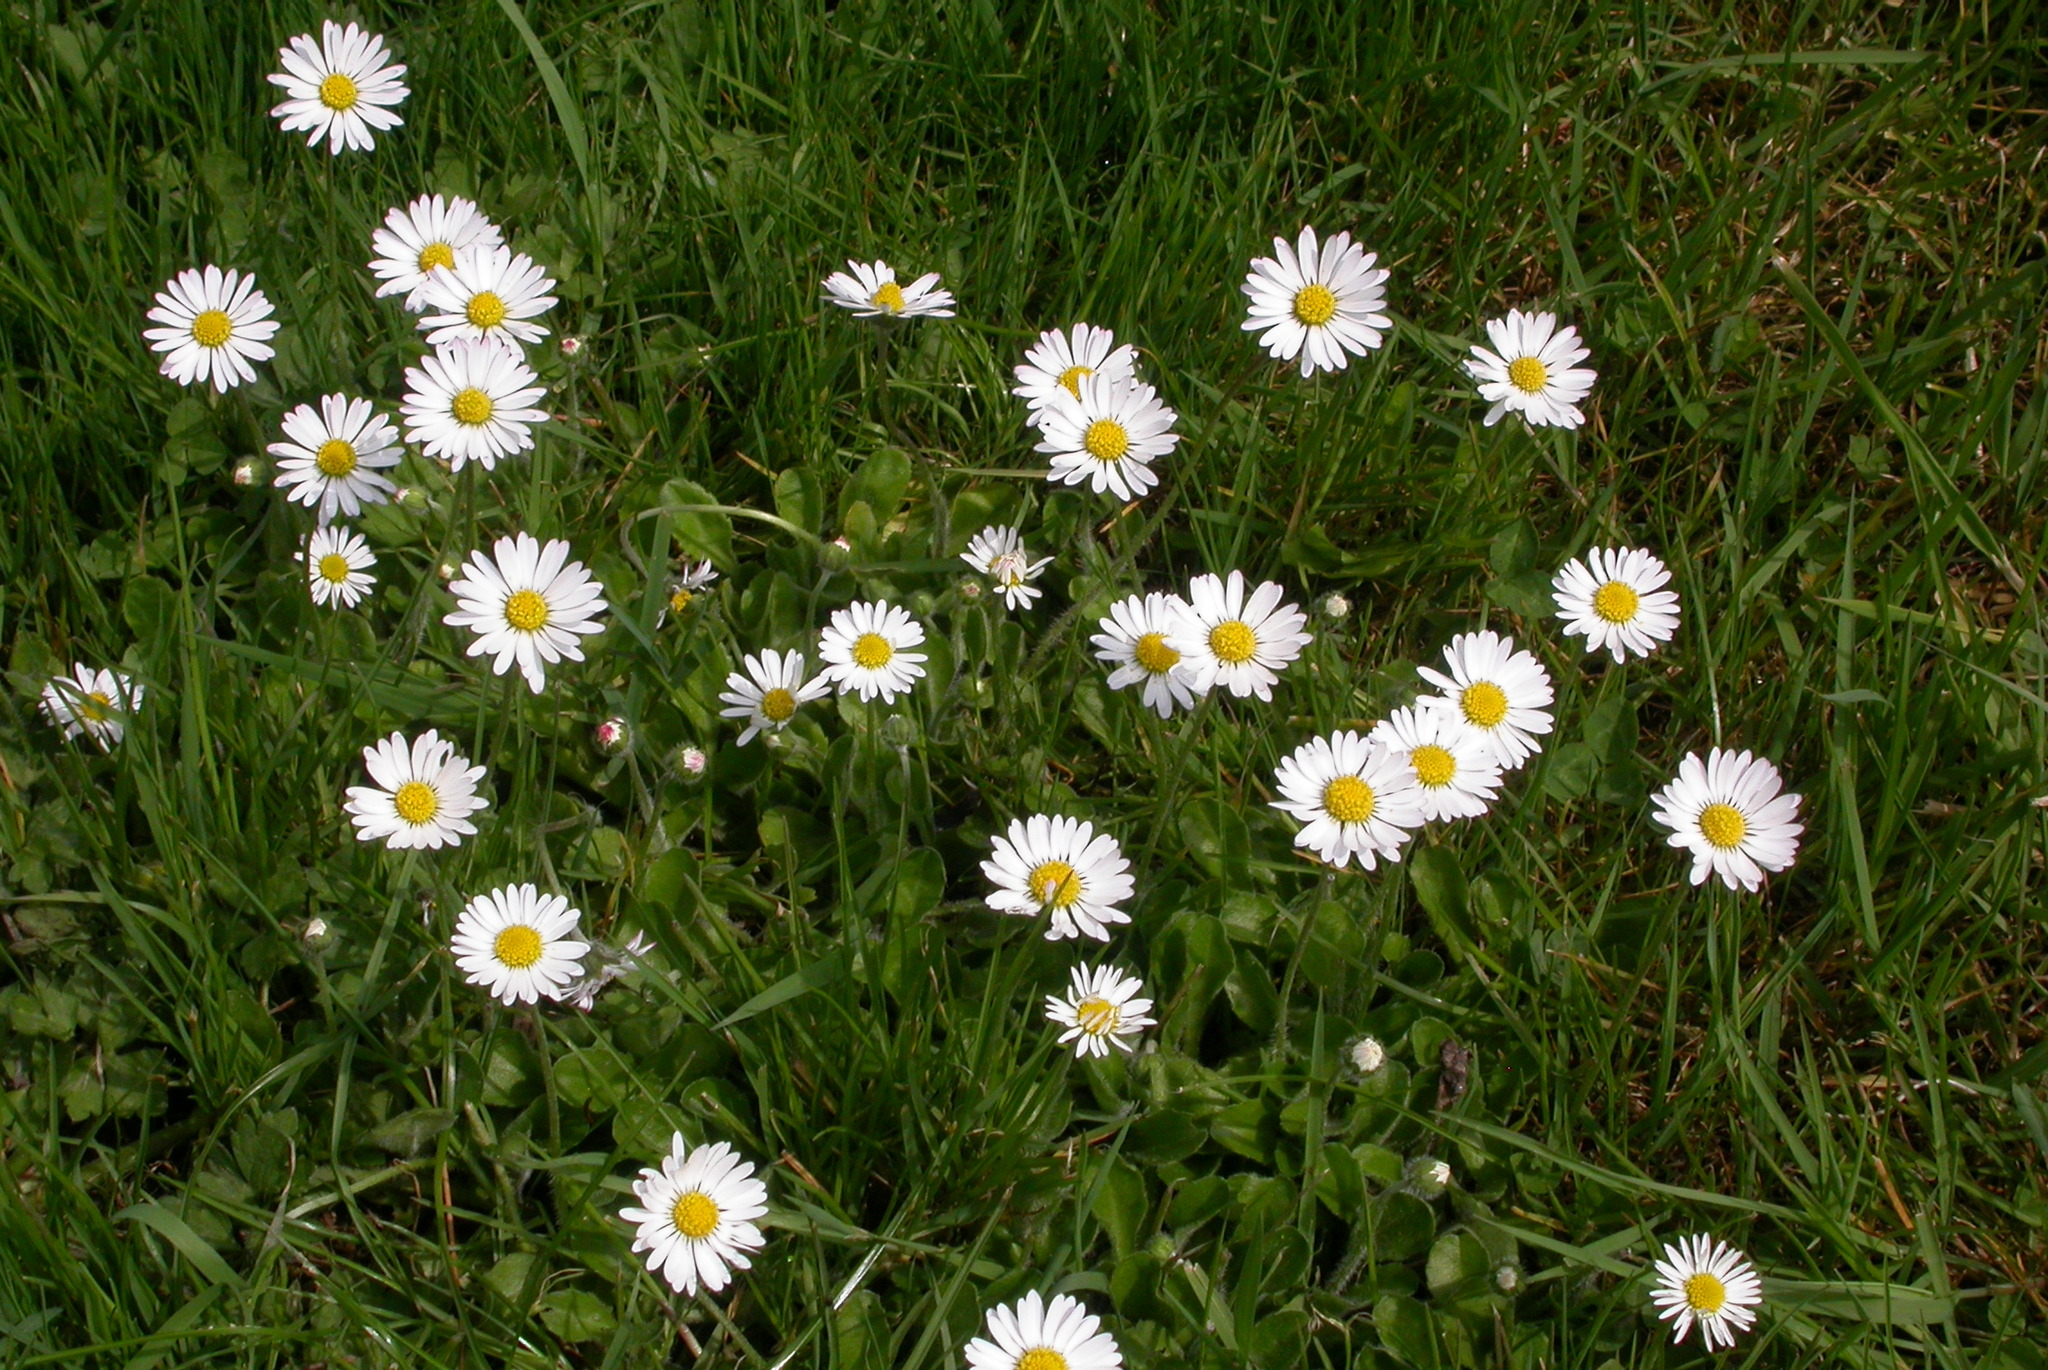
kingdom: Plantae
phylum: Tracheophyta
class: Magnoliopsida
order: Asterales
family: Asteraceae
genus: Bellis
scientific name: Bellis perennis
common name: Lawndaisy
